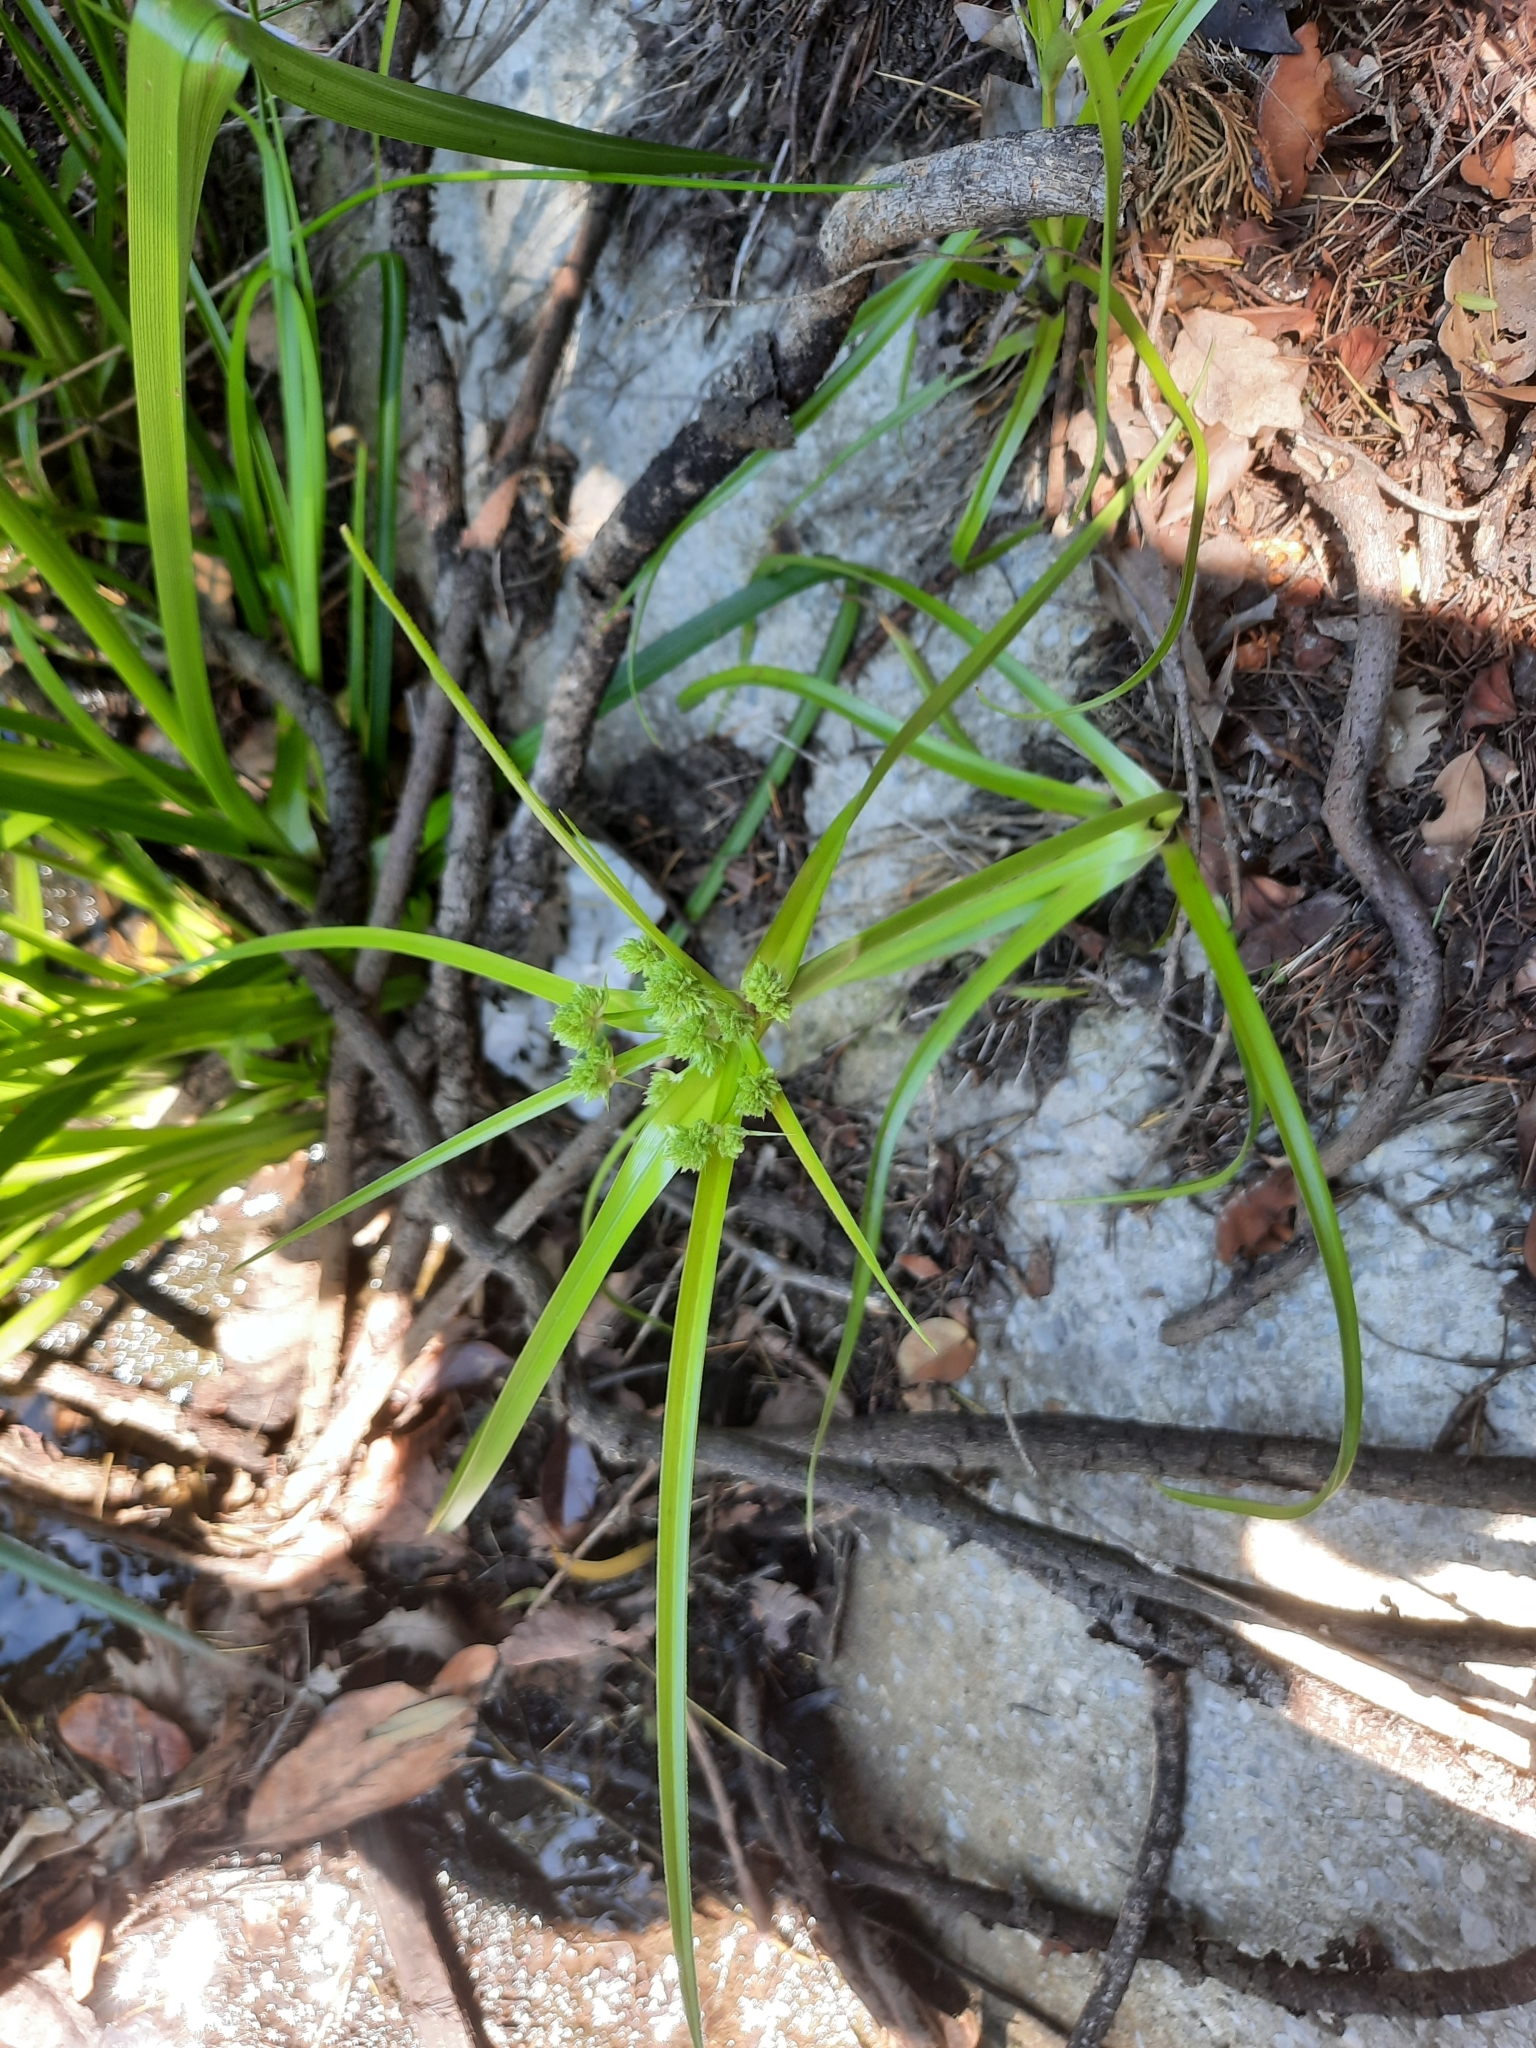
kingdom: Plantae
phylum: Tracheophyta
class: Liliopsida
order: Poales
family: Cyperaceae
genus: Cyperus
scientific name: Cyperus eragrostis
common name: Tall flatsedge
